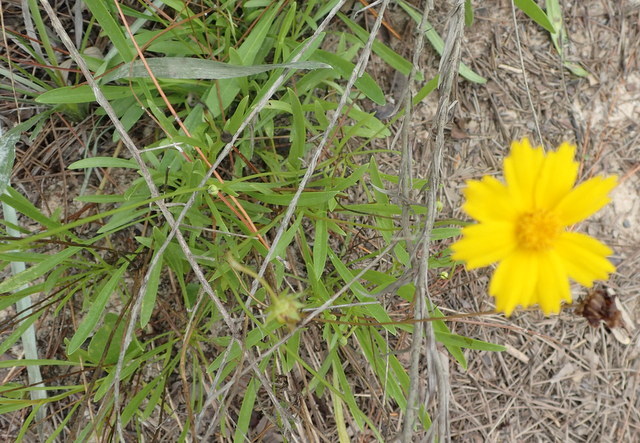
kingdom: Plantae
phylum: Tracheophyta
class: Magnoliopsida
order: Asterales
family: Asteraceae
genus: Coreopsis
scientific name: Coreopsis lanceolata
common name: Garden coreopsis
